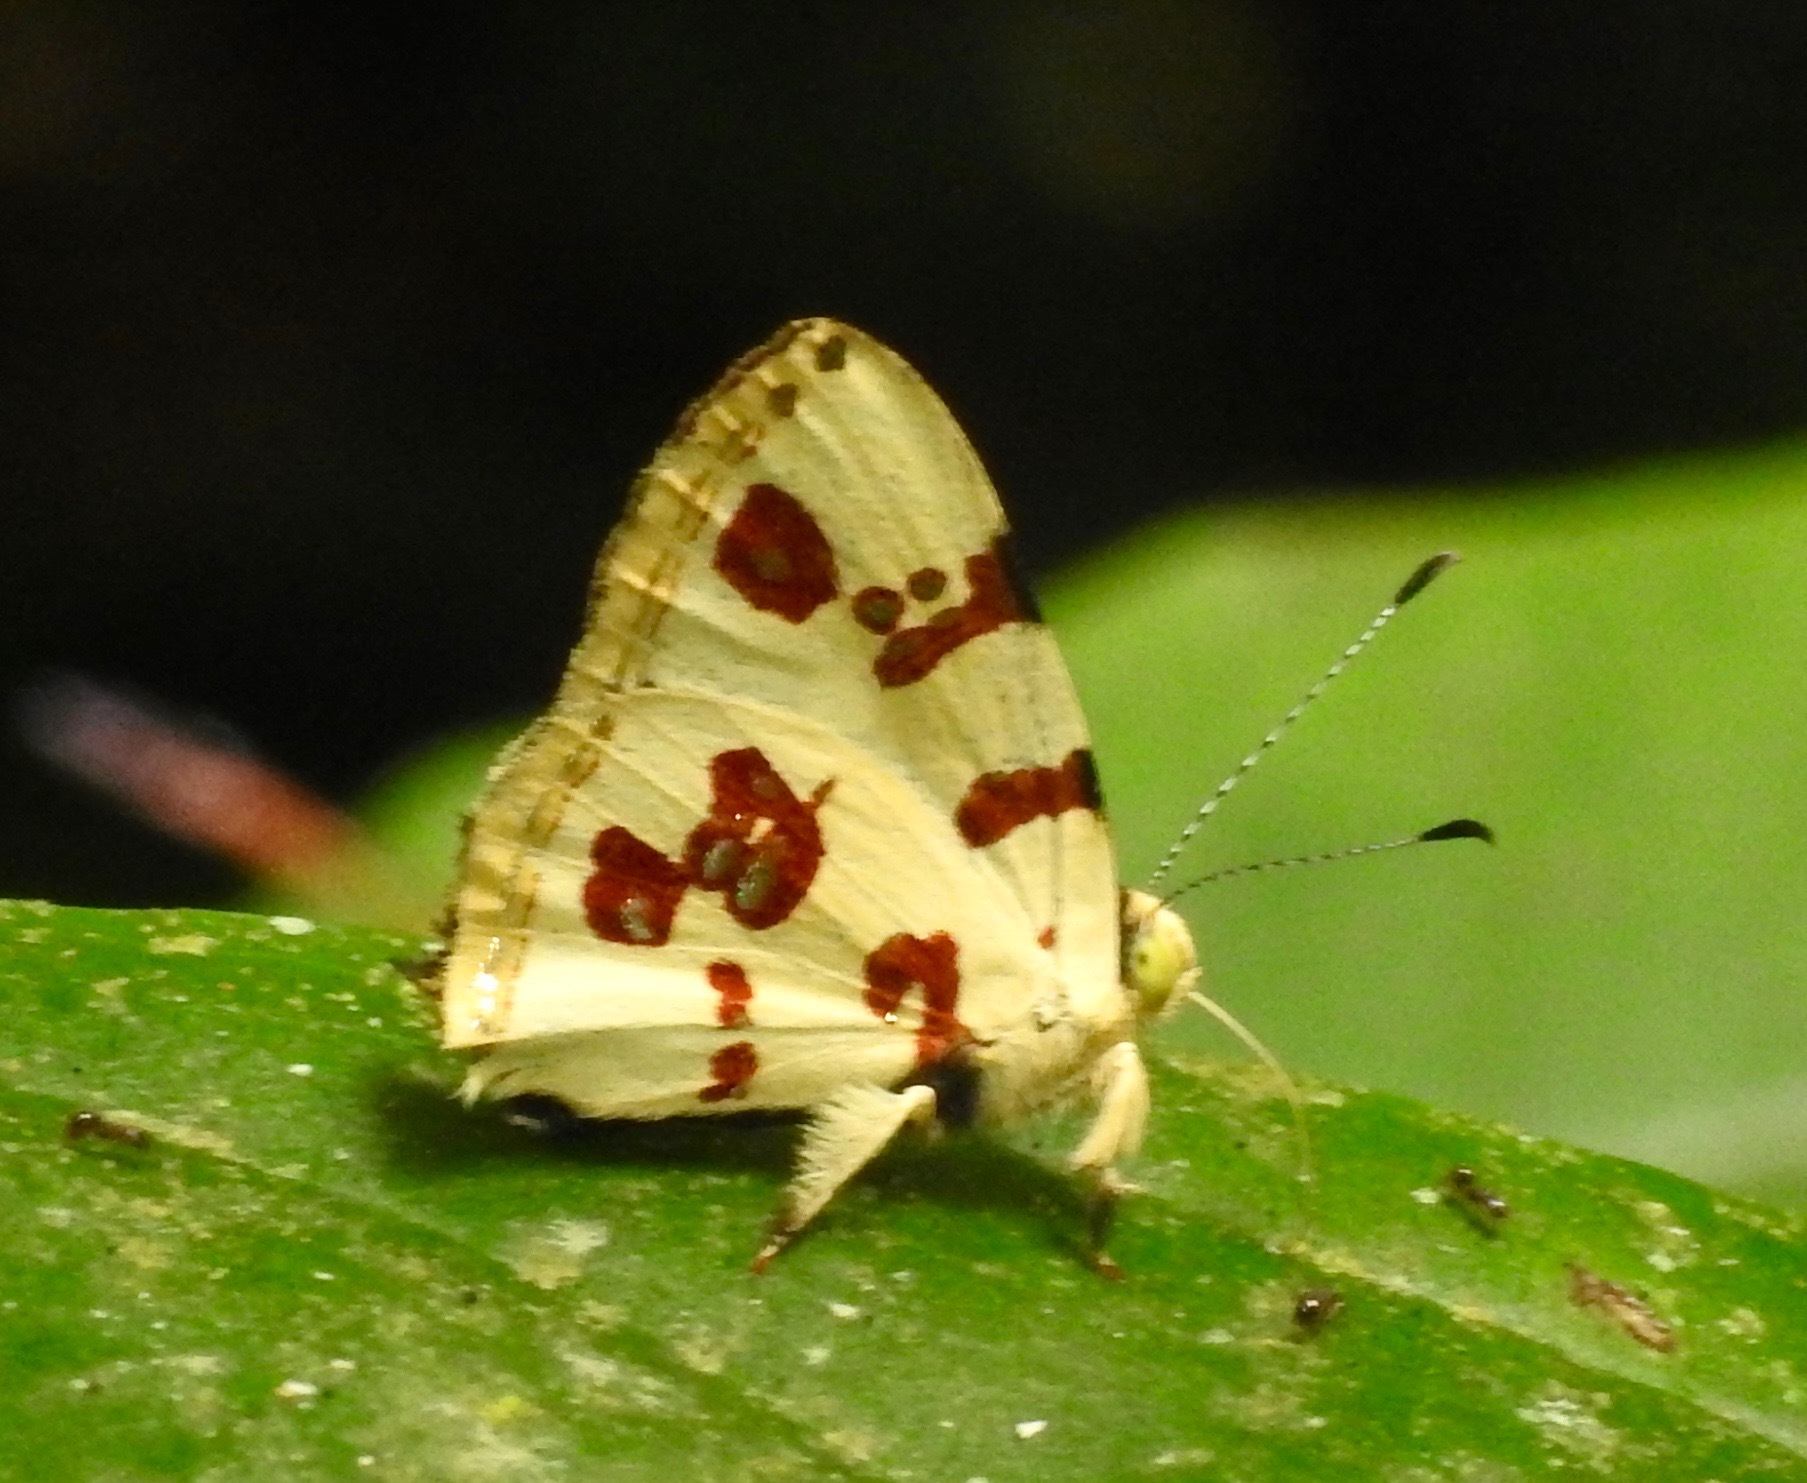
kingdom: Animalia
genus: Anteros
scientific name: Anteros formosus
